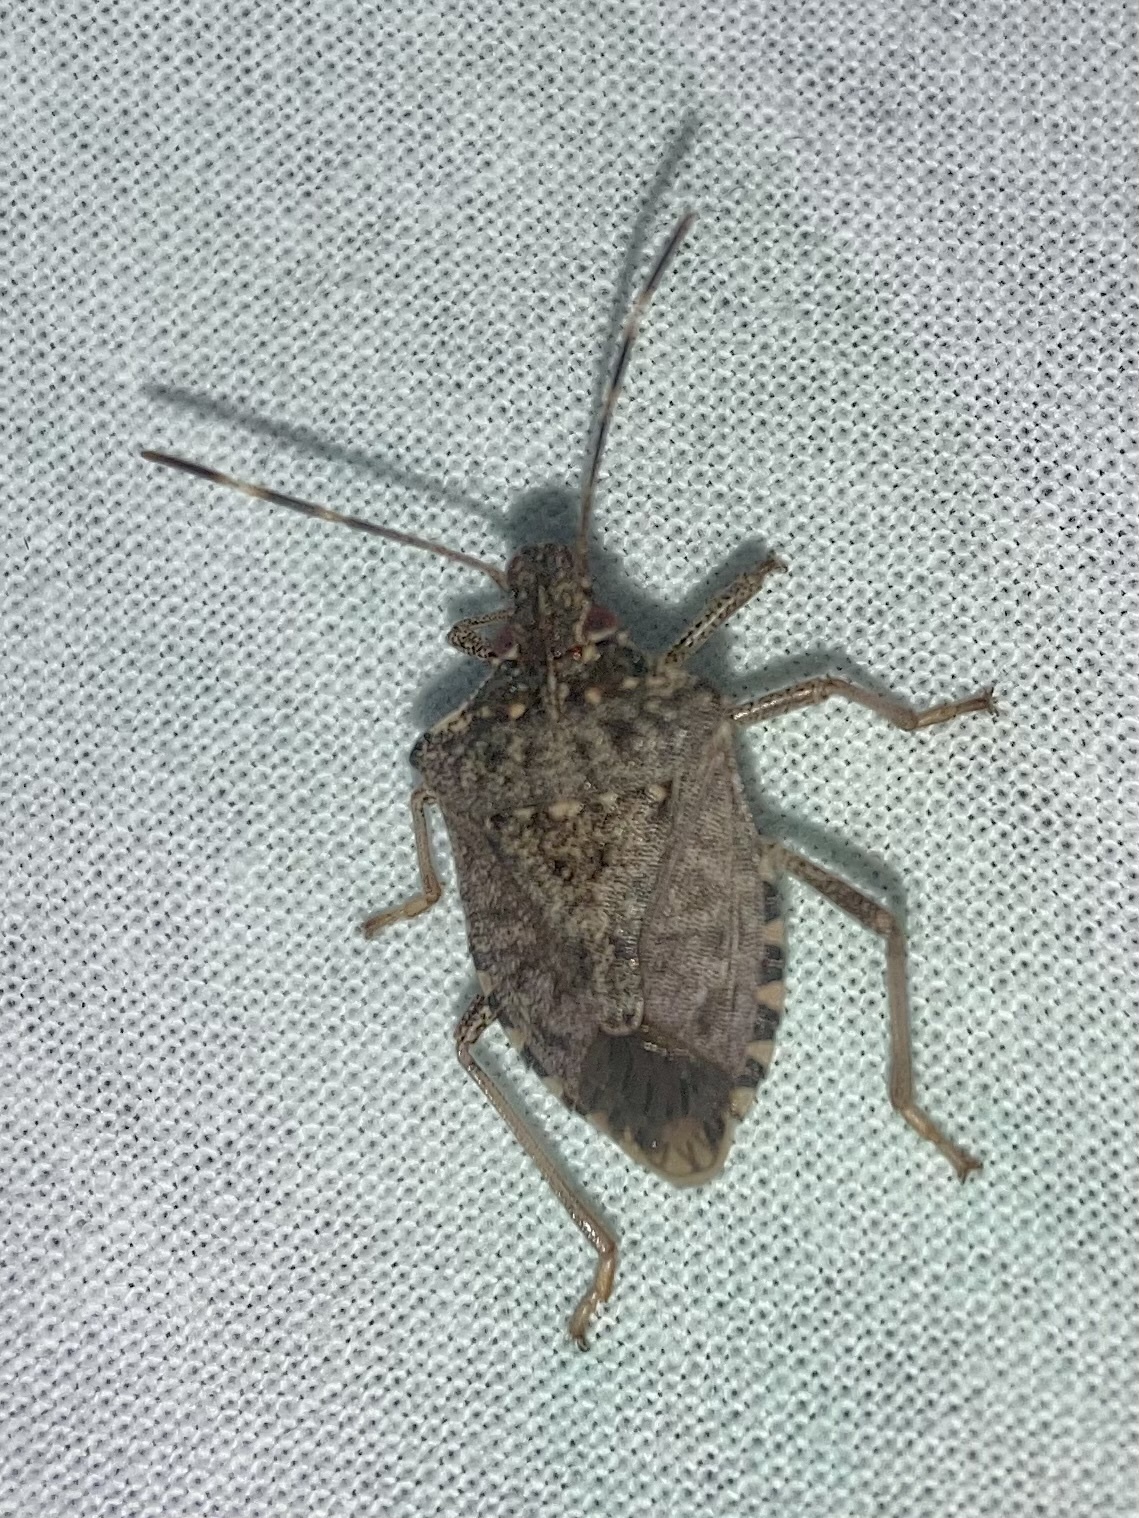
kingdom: Animalia
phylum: Arthropoda
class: Insecta
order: Hemiptera
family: Pentatomidae
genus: Halyomorpha
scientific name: Halyomorpha halys
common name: Brown marmorated stink bug
